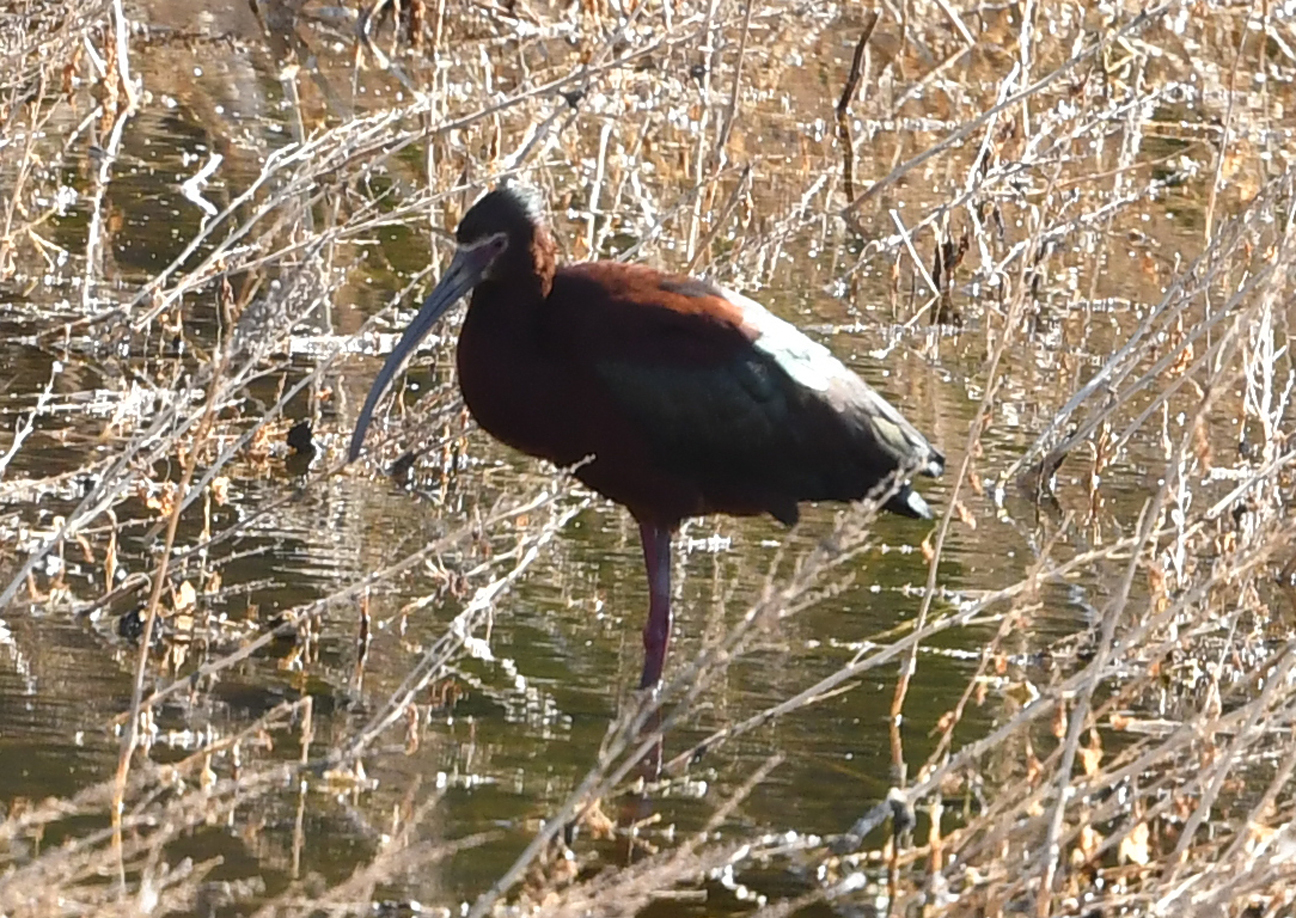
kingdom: Animalia
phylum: Chordata
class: Aves
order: Pelecaniformes
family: Threskiornithidae
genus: Plegadis
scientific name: Plegadis chihi
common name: White-faced ibis
